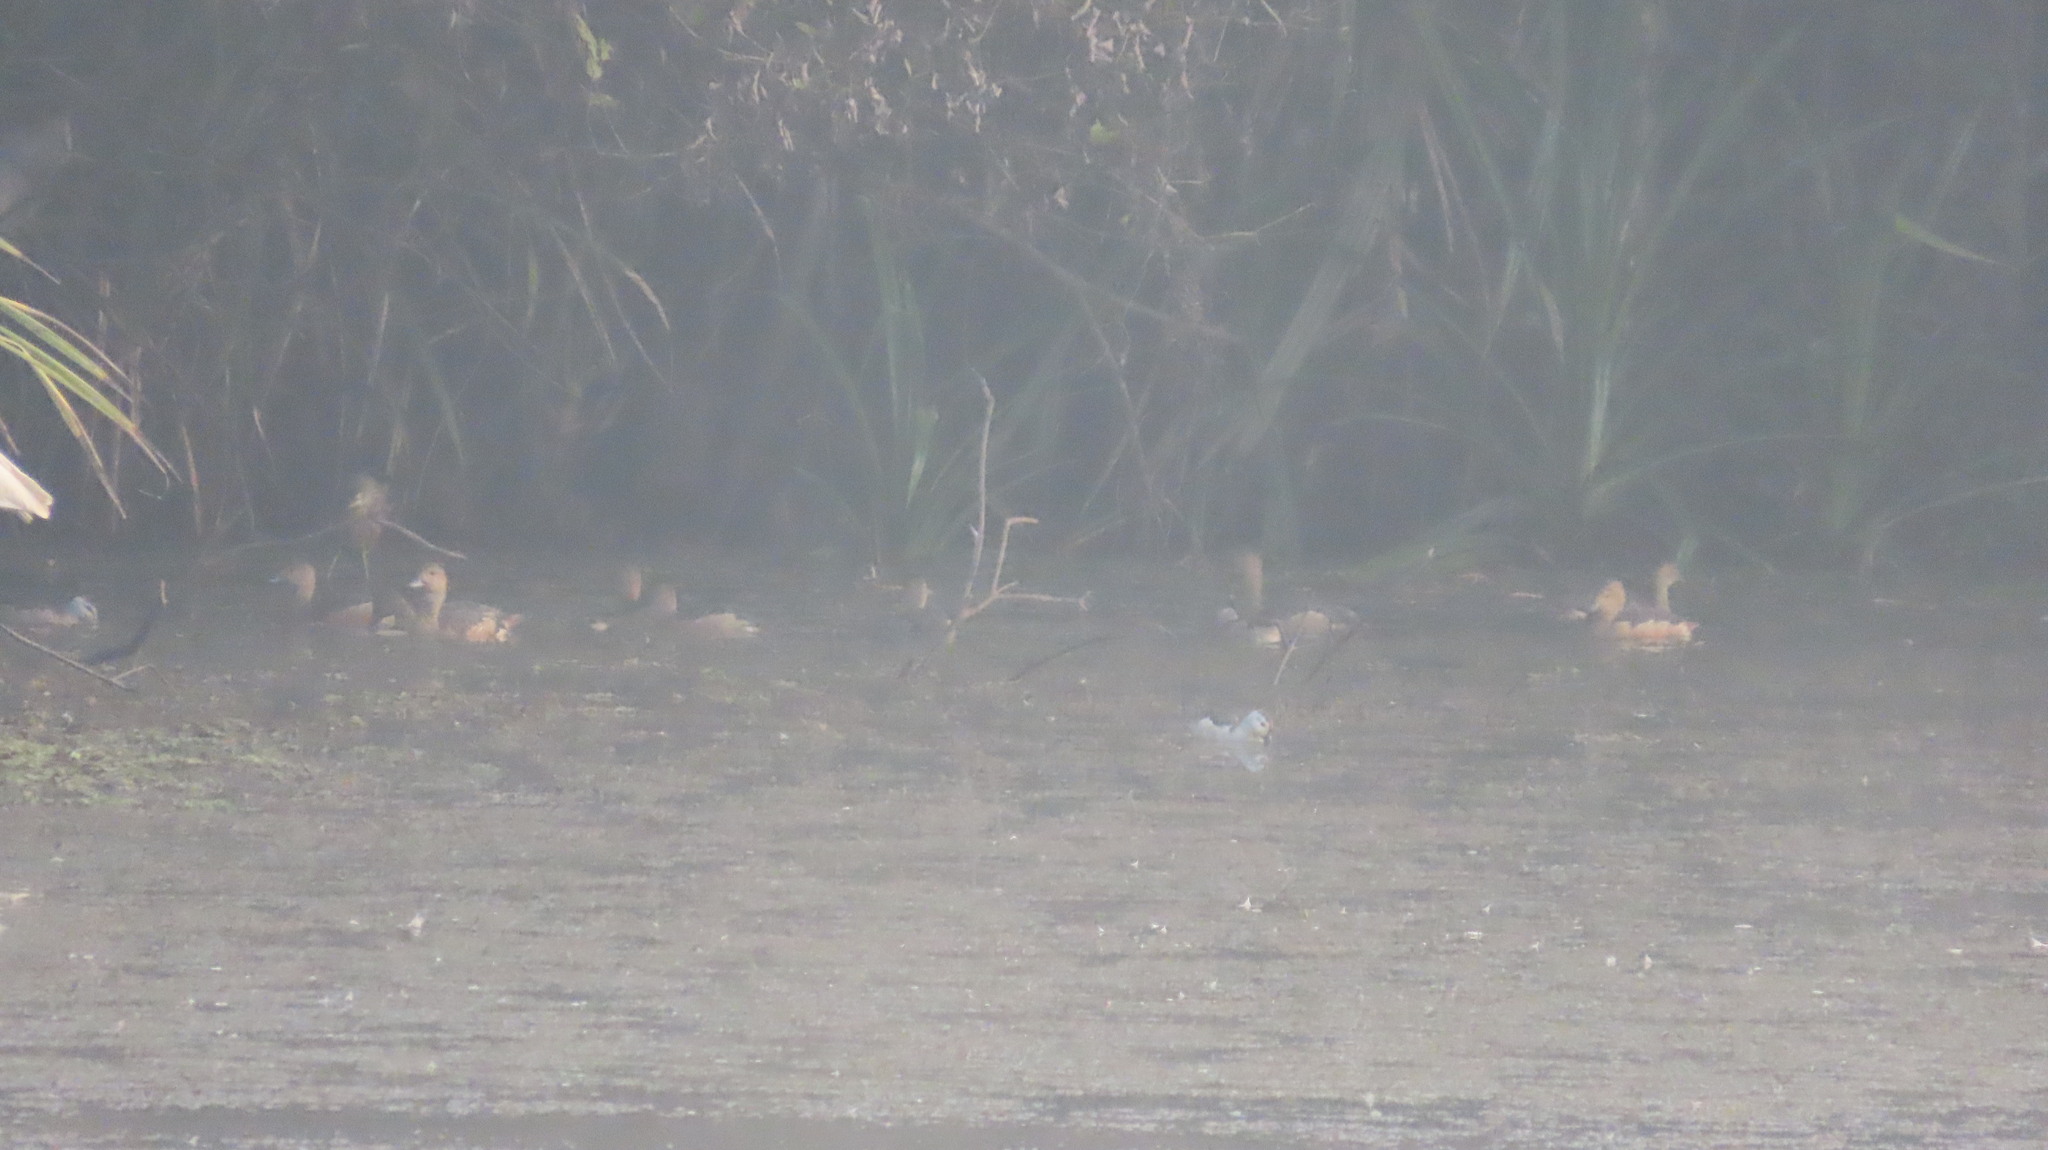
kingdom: Animalia
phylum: Chordata
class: Aves
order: Anseriformes
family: Anatidae
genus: Dendrocygna
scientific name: Dendrocygna javanica
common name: Lesser whistling-duck
